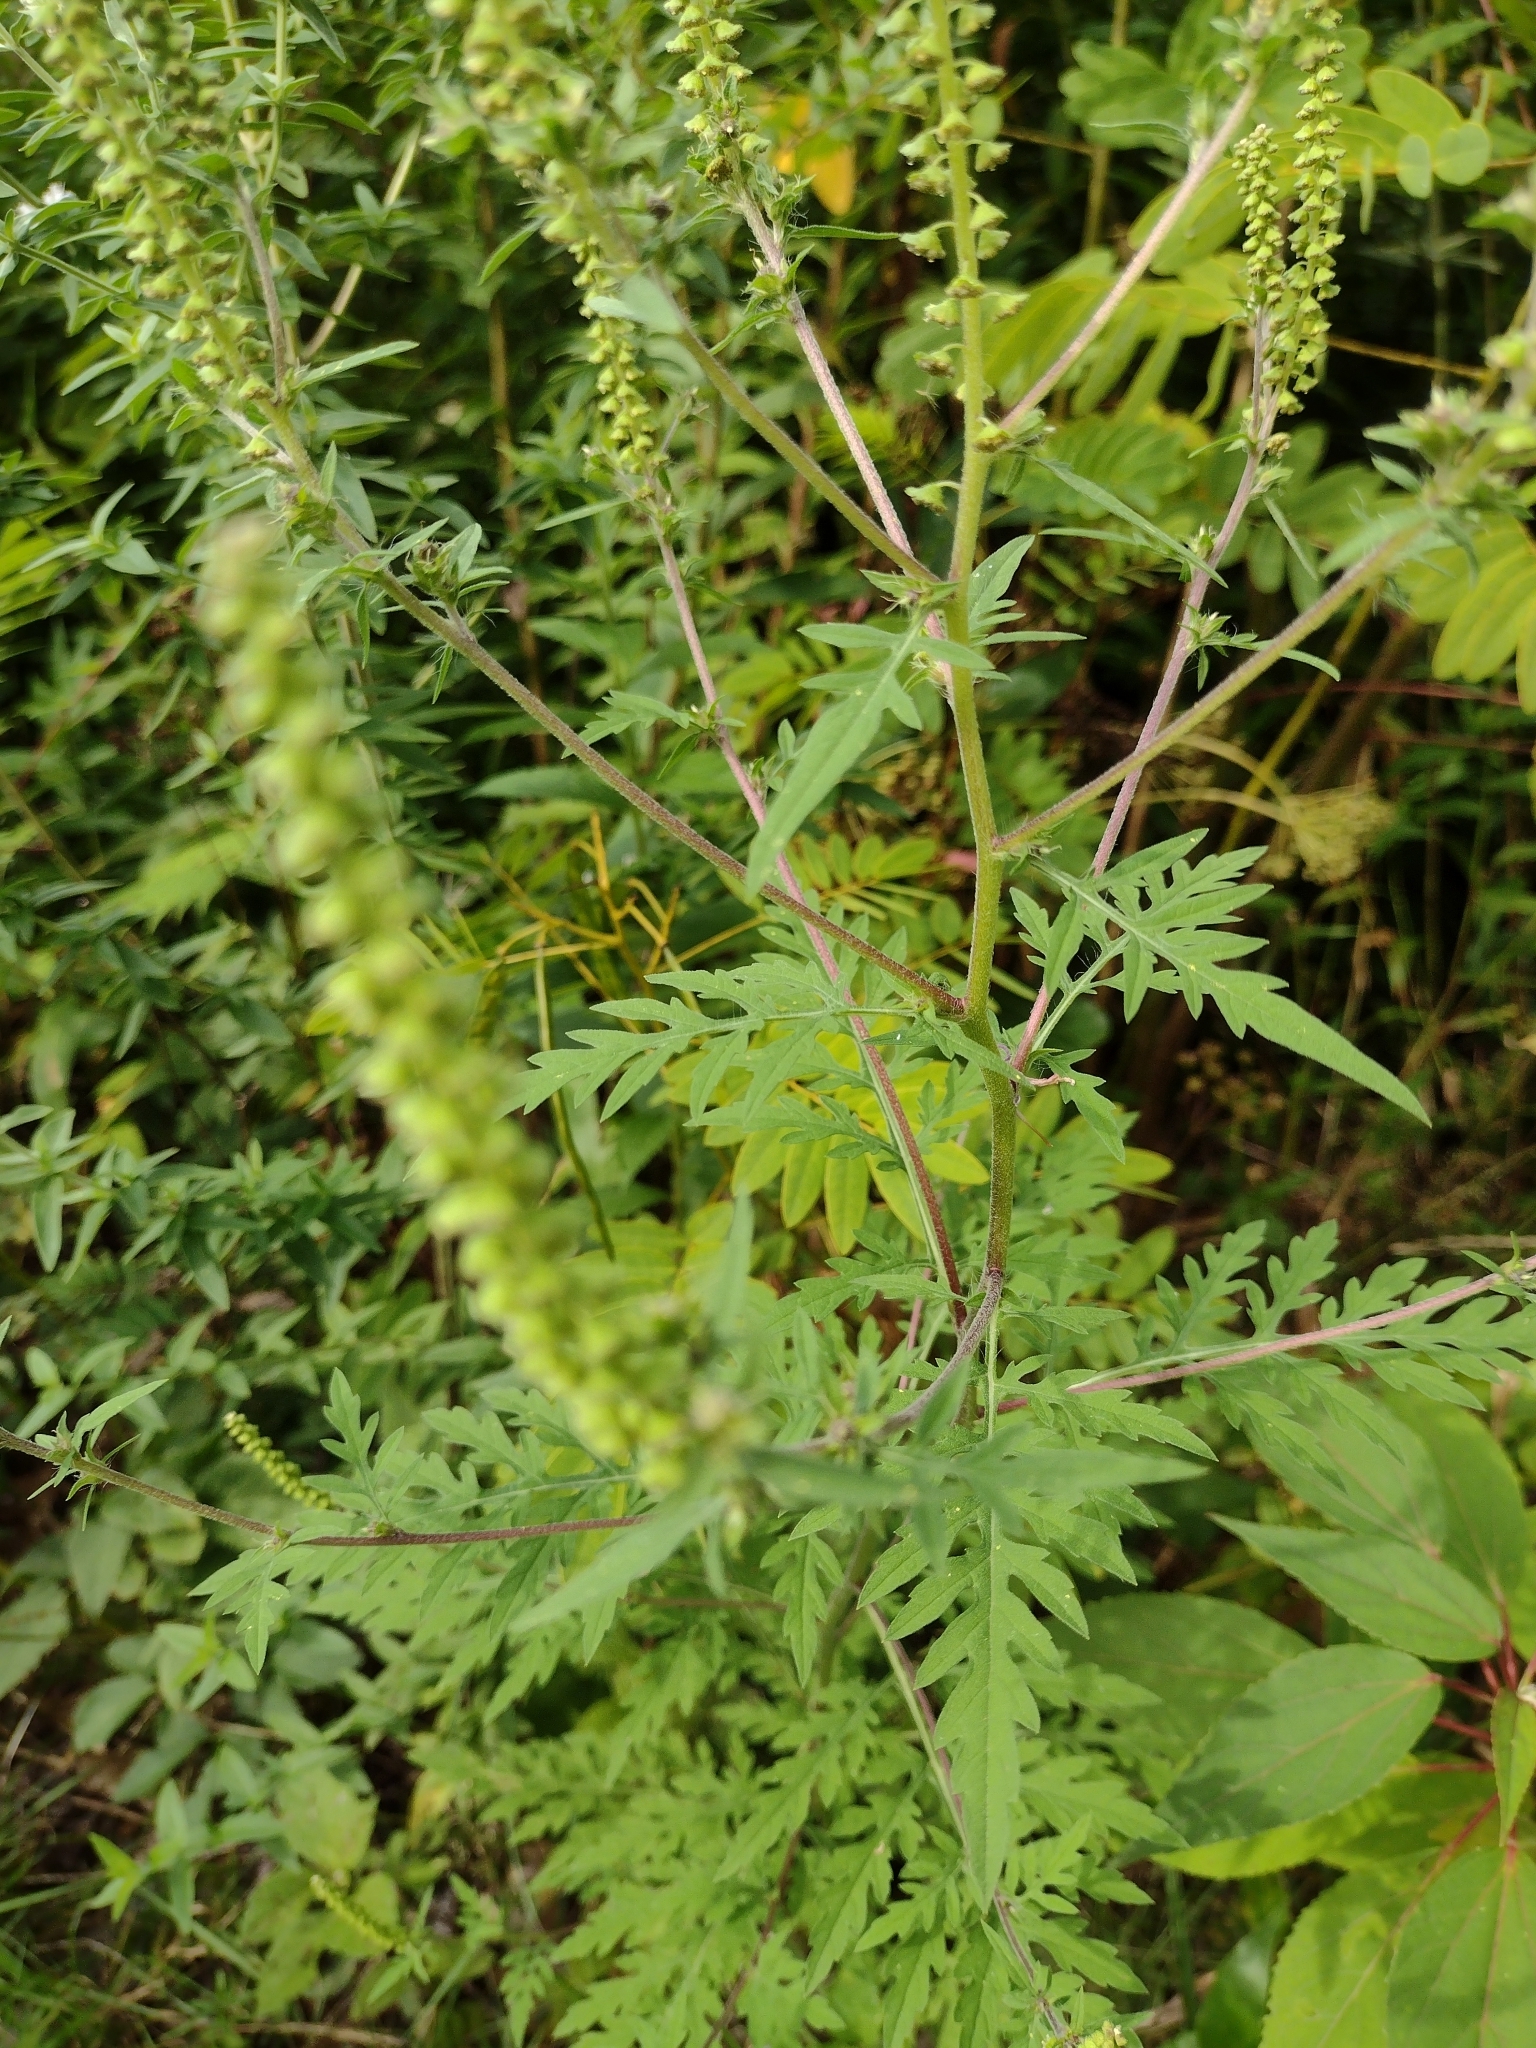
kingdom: Plantae
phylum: Tracheophyta
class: Magnoliopsida
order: Asterales
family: Asteraceae
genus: Ambrosia
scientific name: Ambrosia artemisiifolia
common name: Annual ragweed
